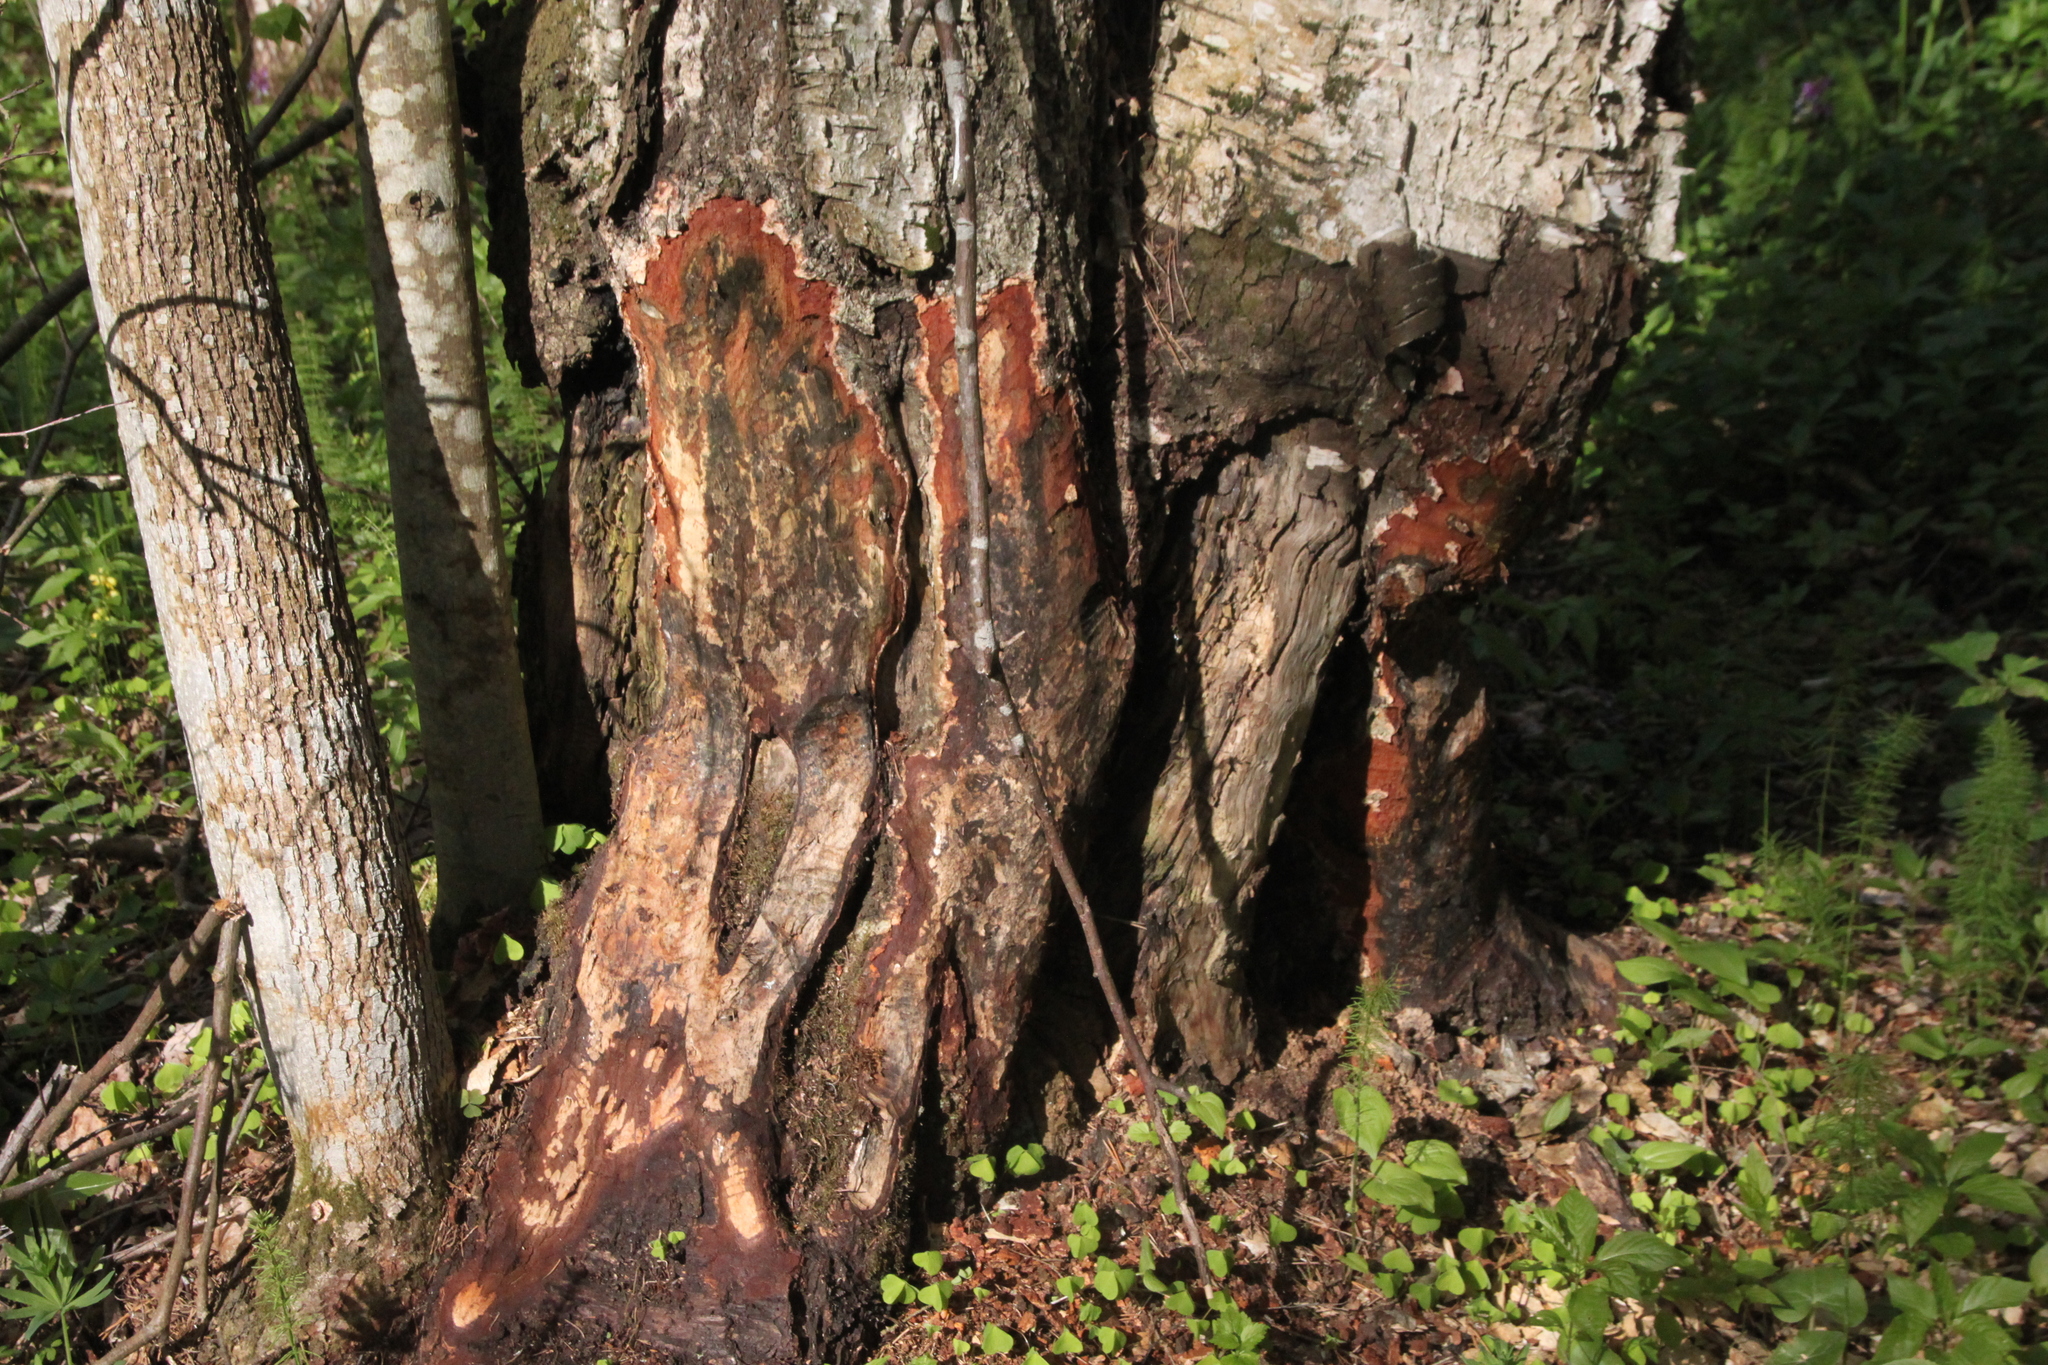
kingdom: Animalia
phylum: Chordata
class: Mammalia
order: Rodentia
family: Castoridae
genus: Castor
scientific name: Castor fiber
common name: Eurasian beaver
